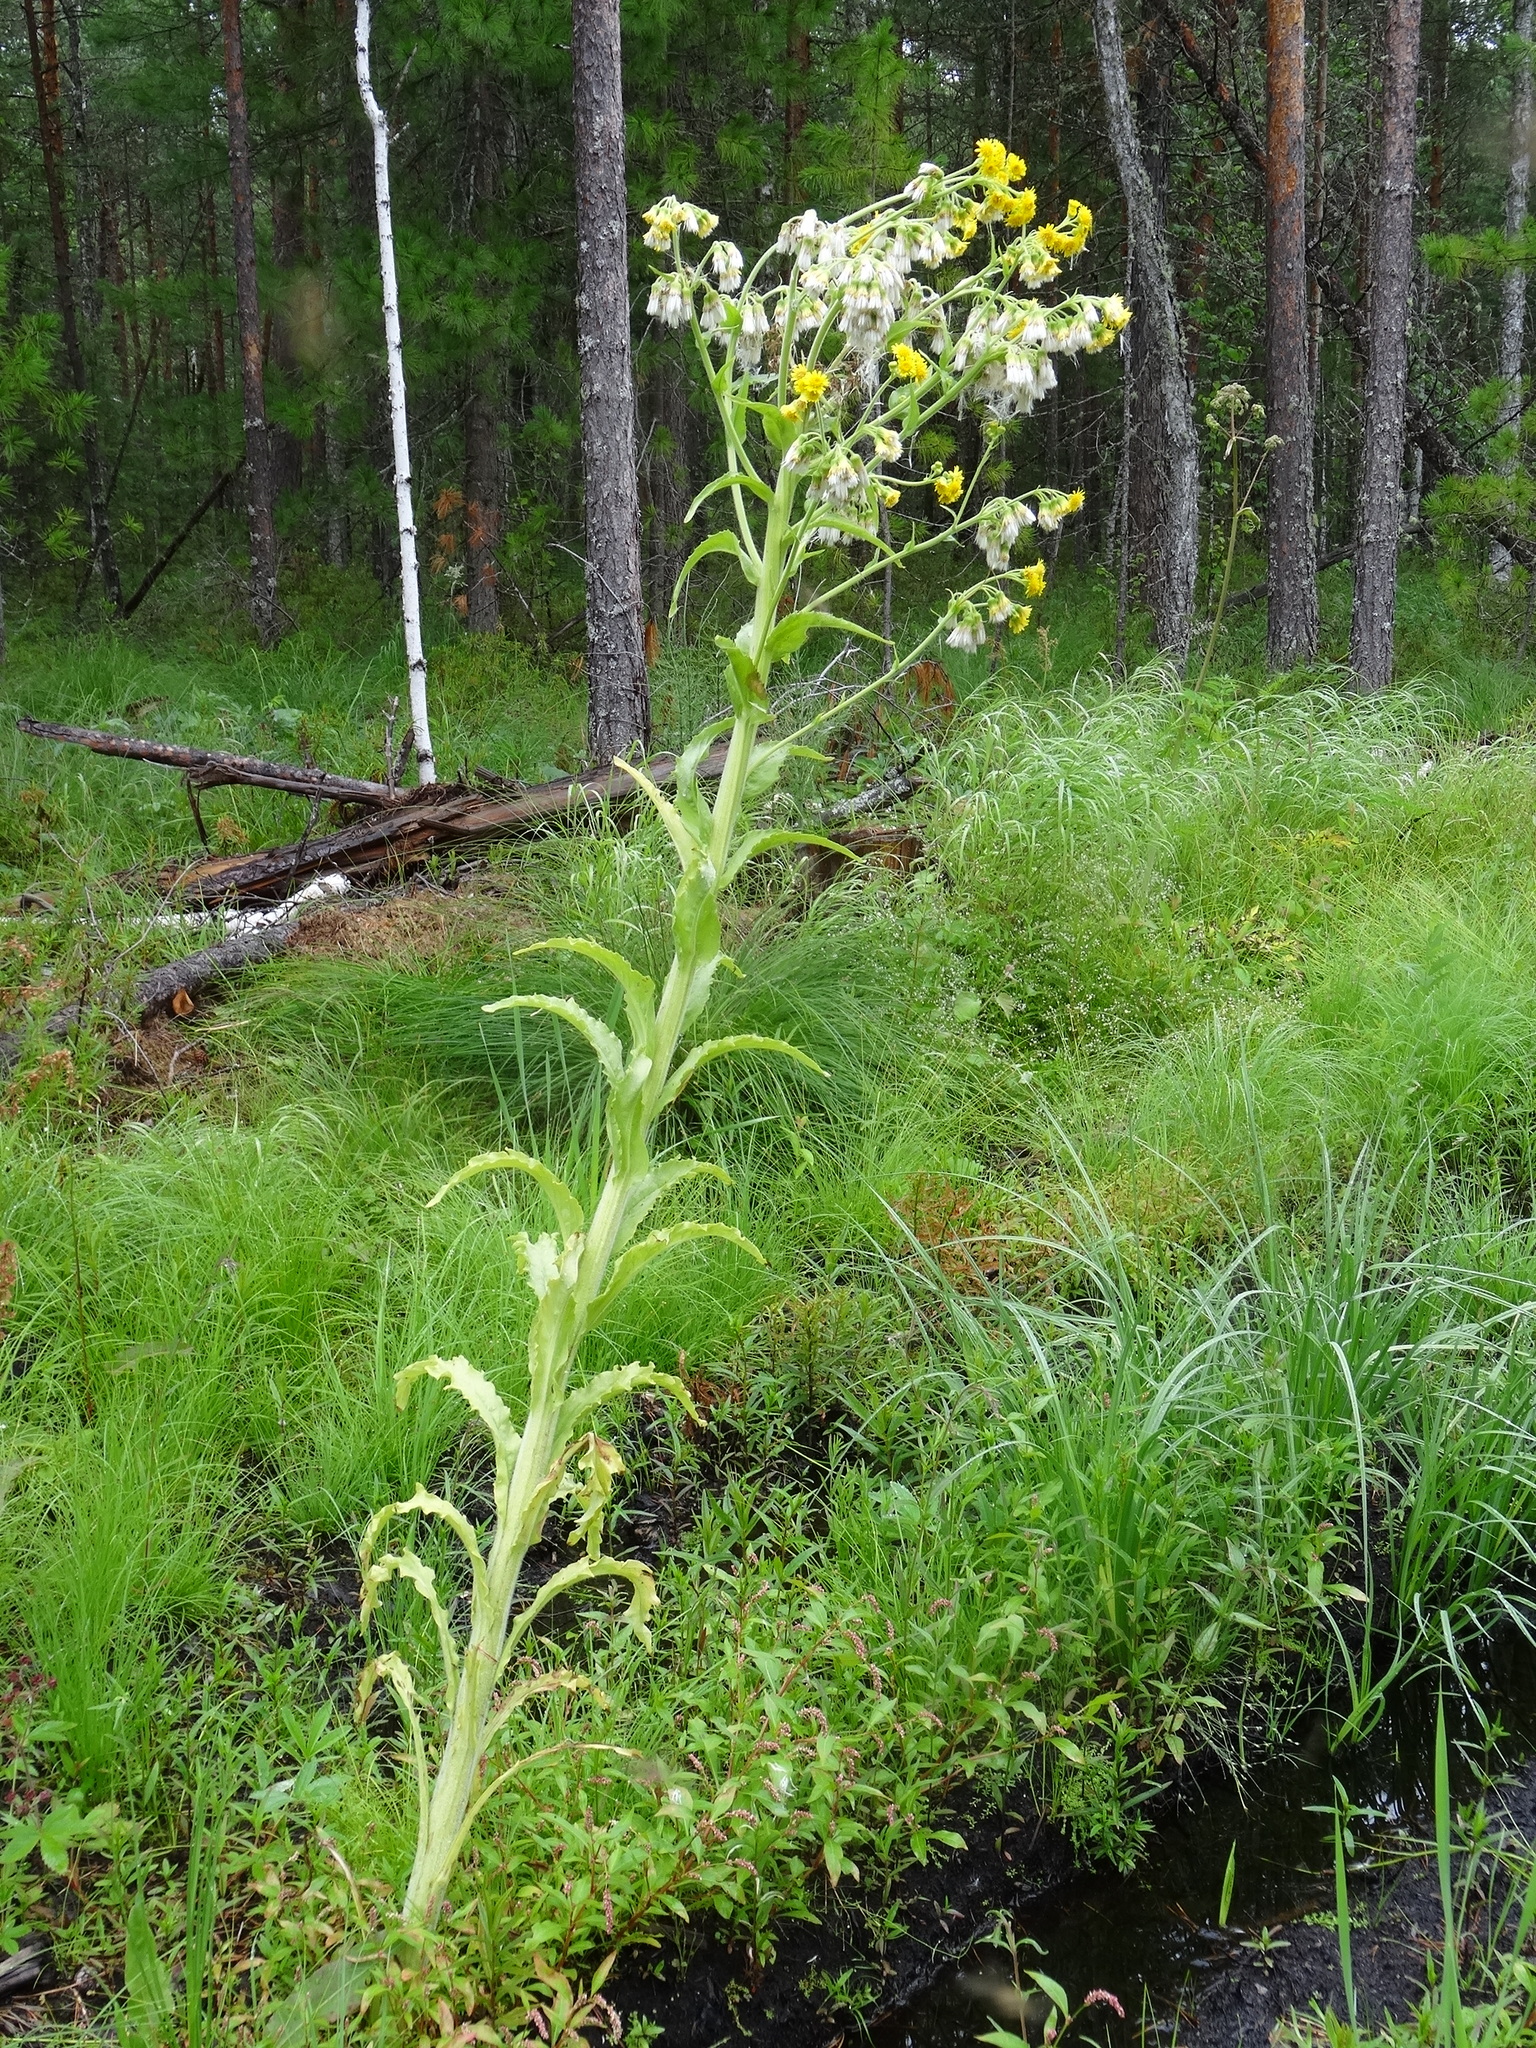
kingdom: Plantae
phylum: Tracheophyta
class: Magnoliopsida
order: Asterales
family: Asteraceae
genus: Tephroseris
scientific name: Tephroseris palustris
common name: Marsh fleawort
